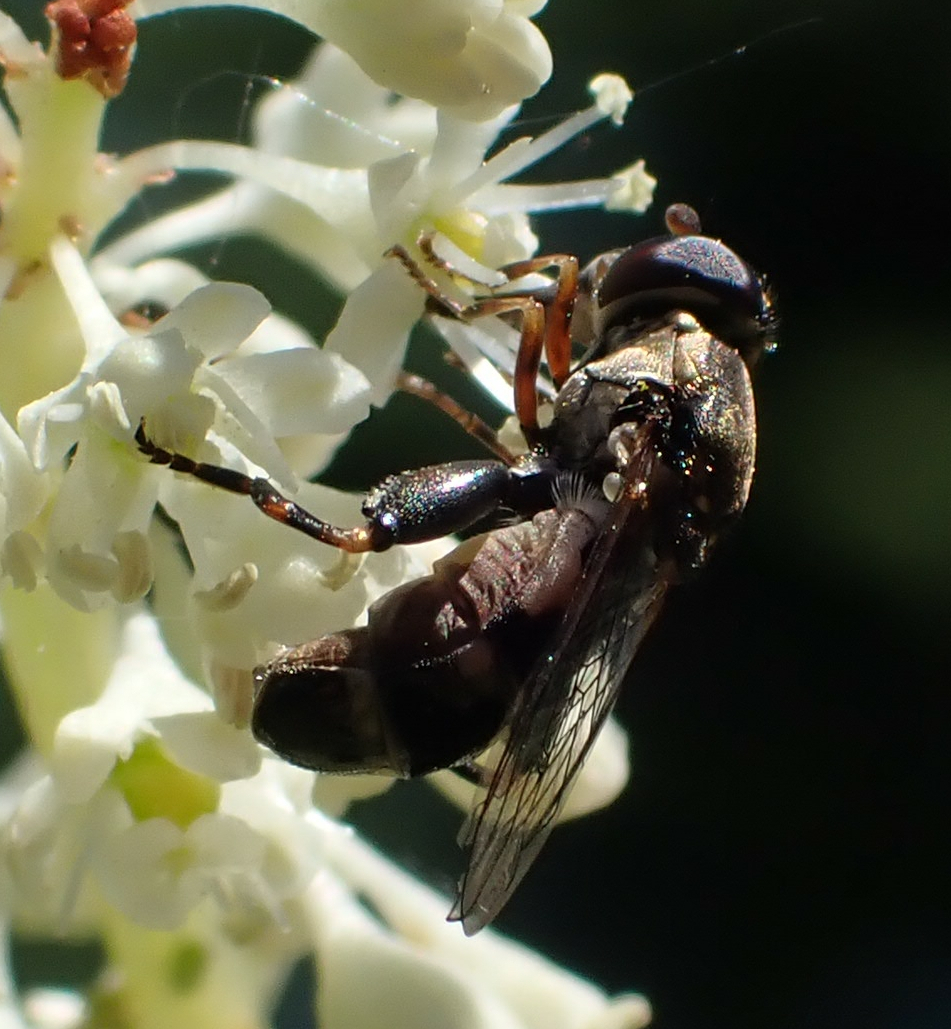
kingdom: Animalia
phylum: Arthropoda
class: Insecta
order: Diptera
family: Syrphidae
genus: Syritta
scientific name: Syritta pipiens
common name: Hover fly
